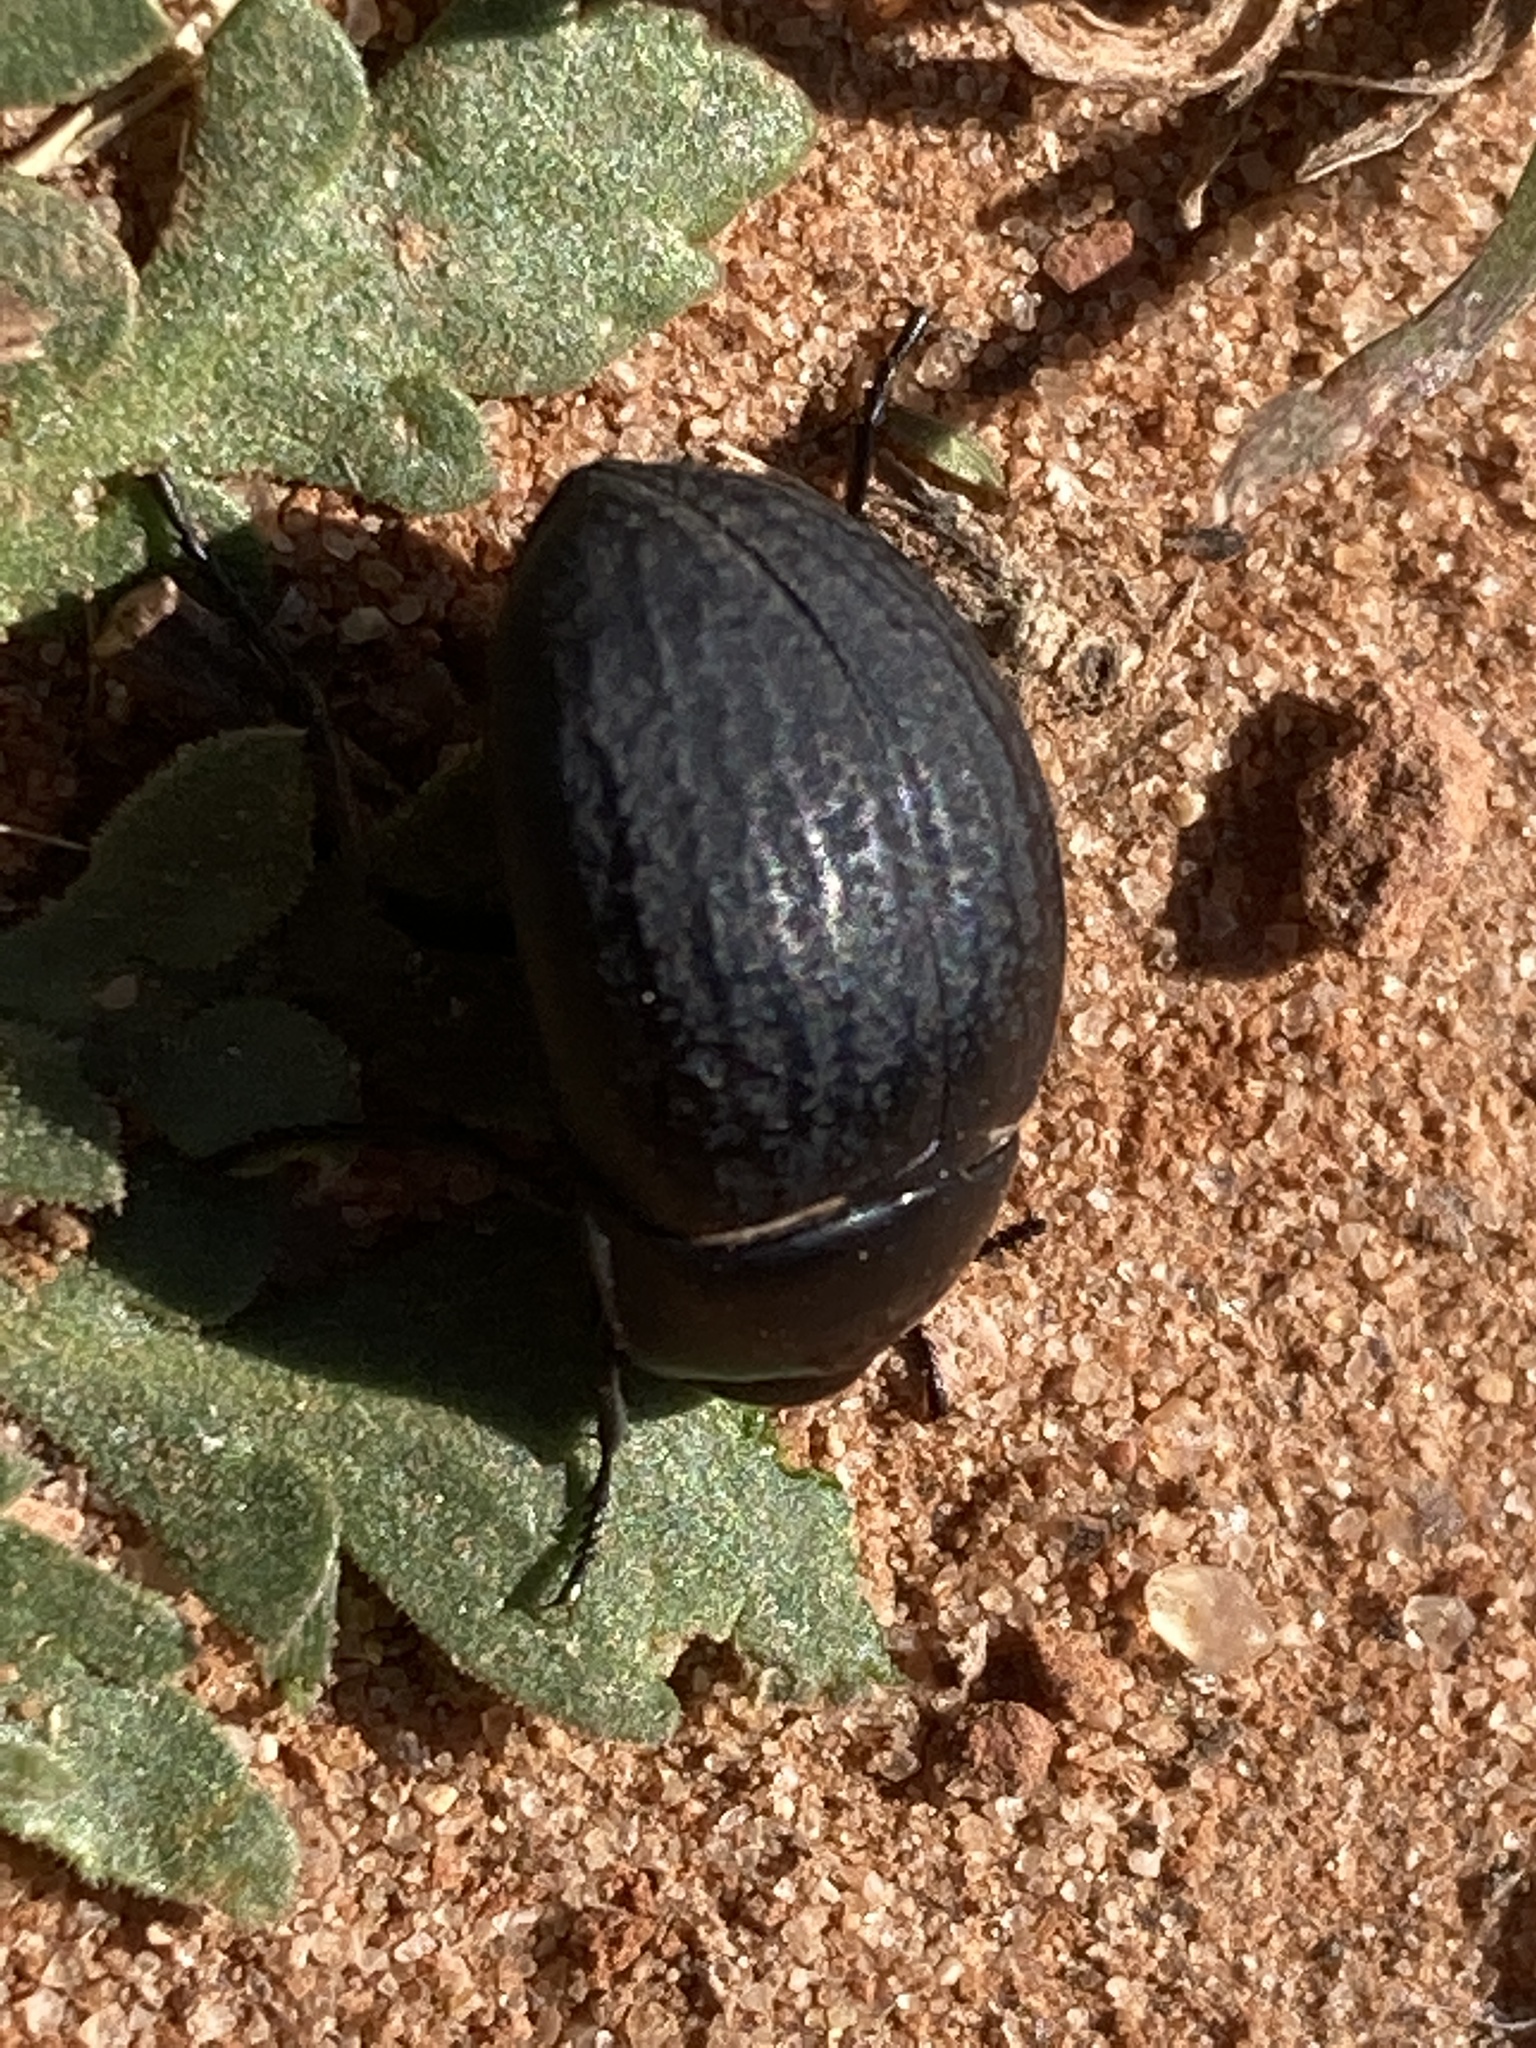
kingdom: Animalia
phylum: Arthropoda
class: Insecta
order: Coleoptera
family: Tenebrionidae
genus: Eusattus
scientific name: Eusattus reticulatus
